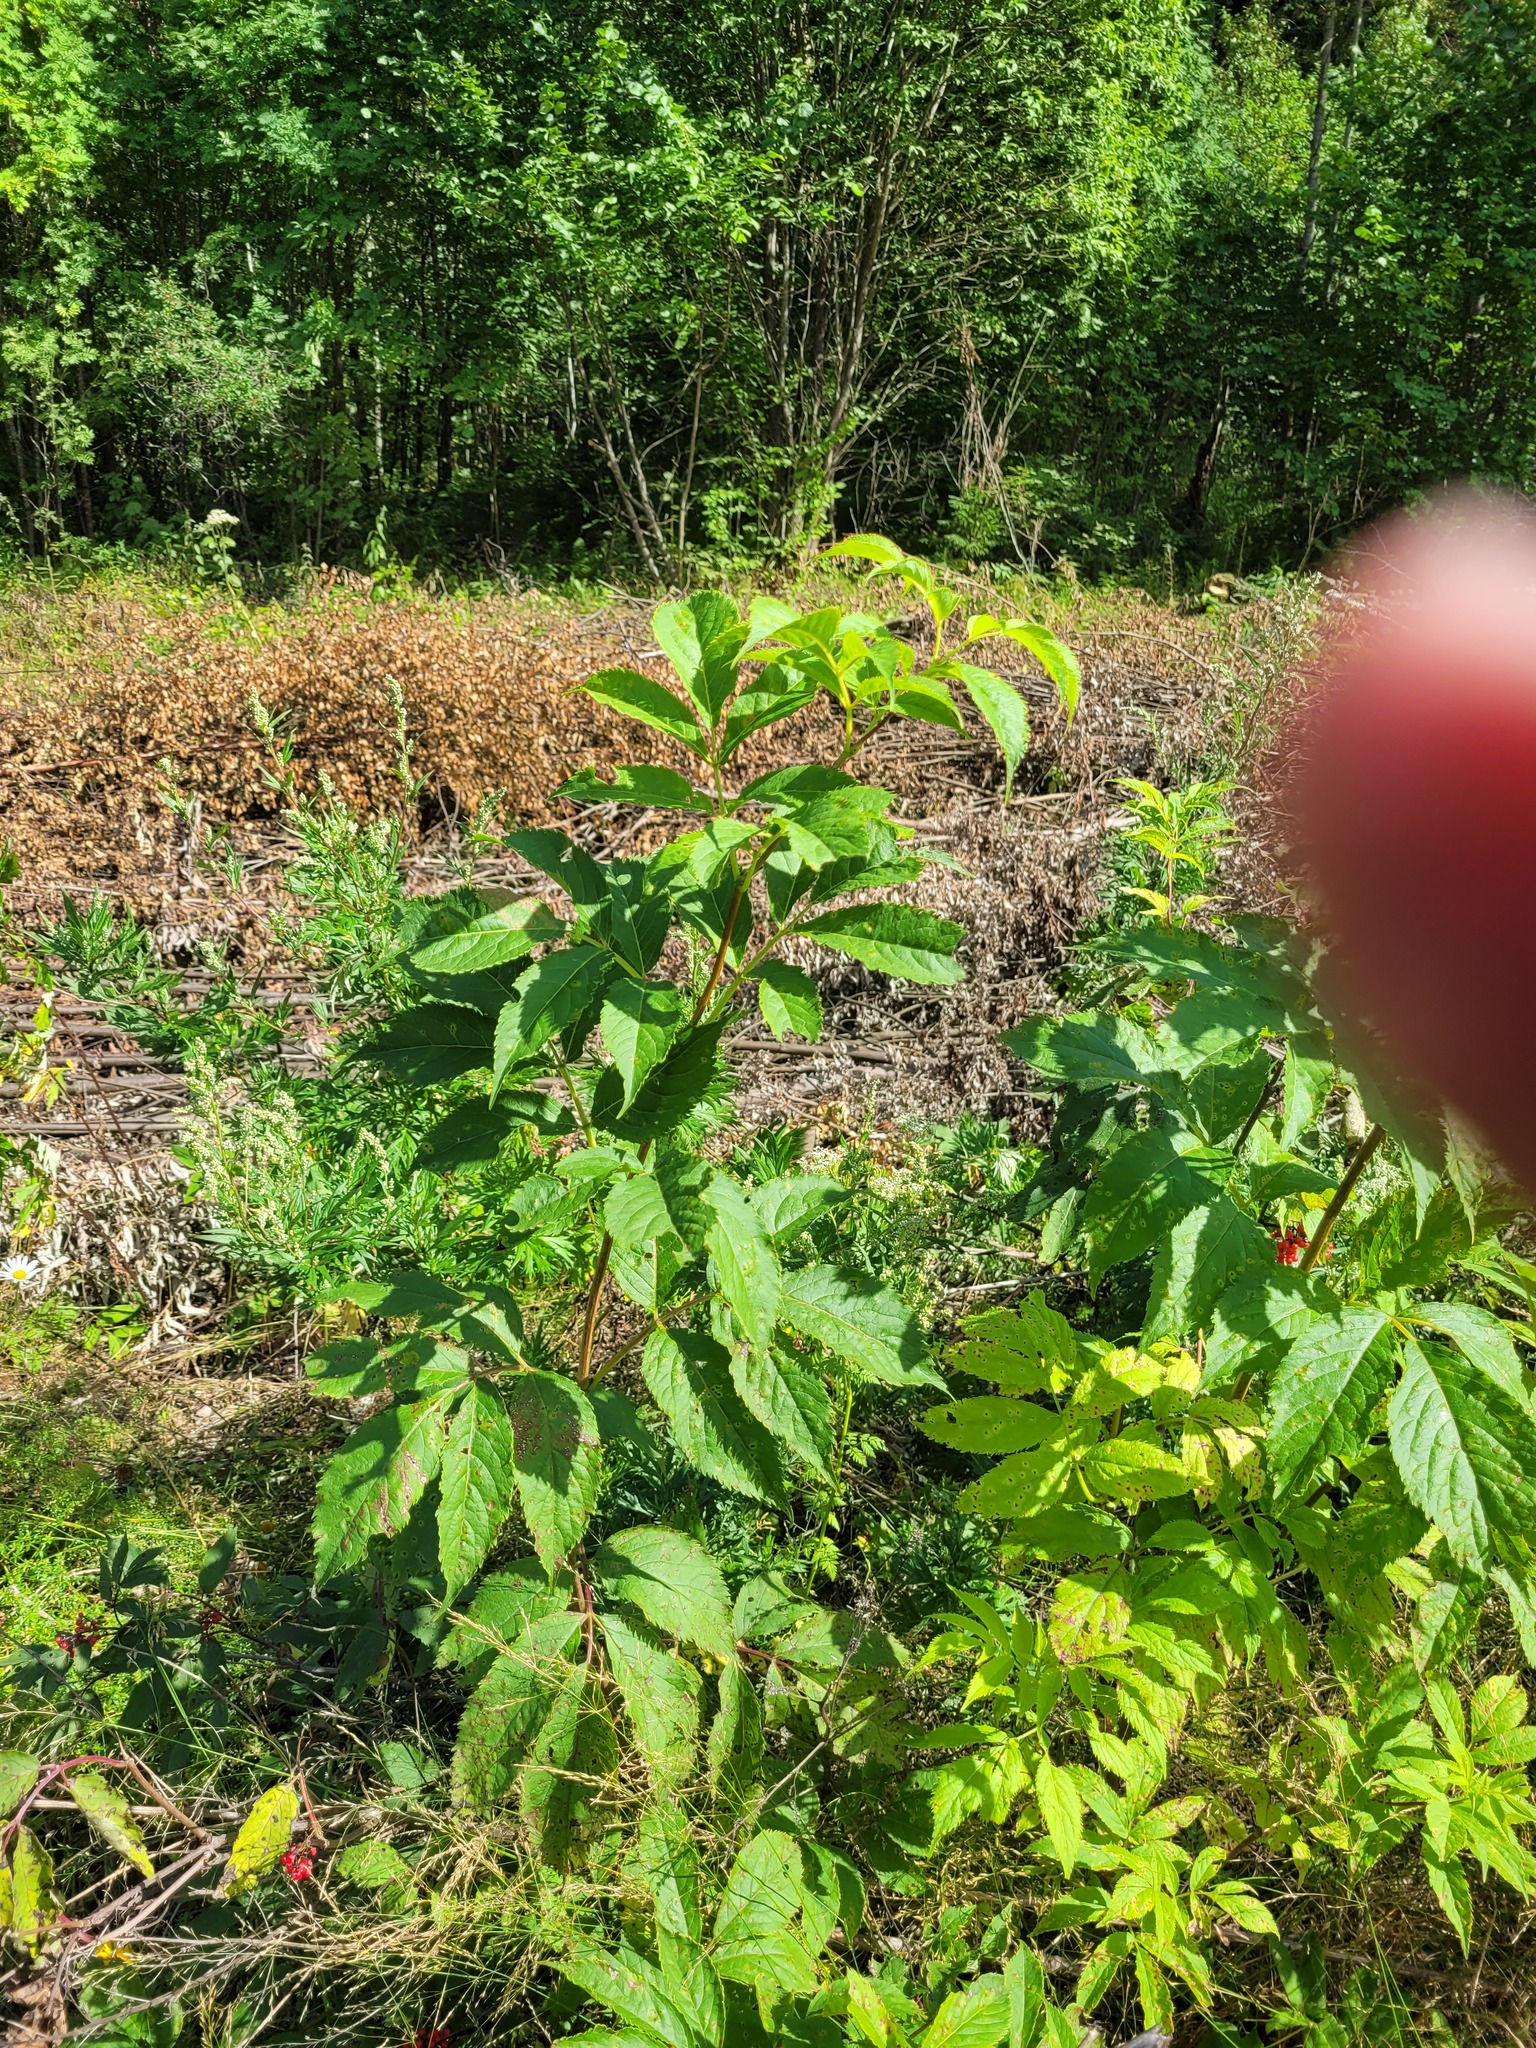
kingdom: Plantae
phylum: Tracheophyta
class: Magnoliopsida
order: Dipsacales
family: Viburnaceae
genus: Sambucus
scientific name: Sambucus racemosa
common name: Red-berried elder
